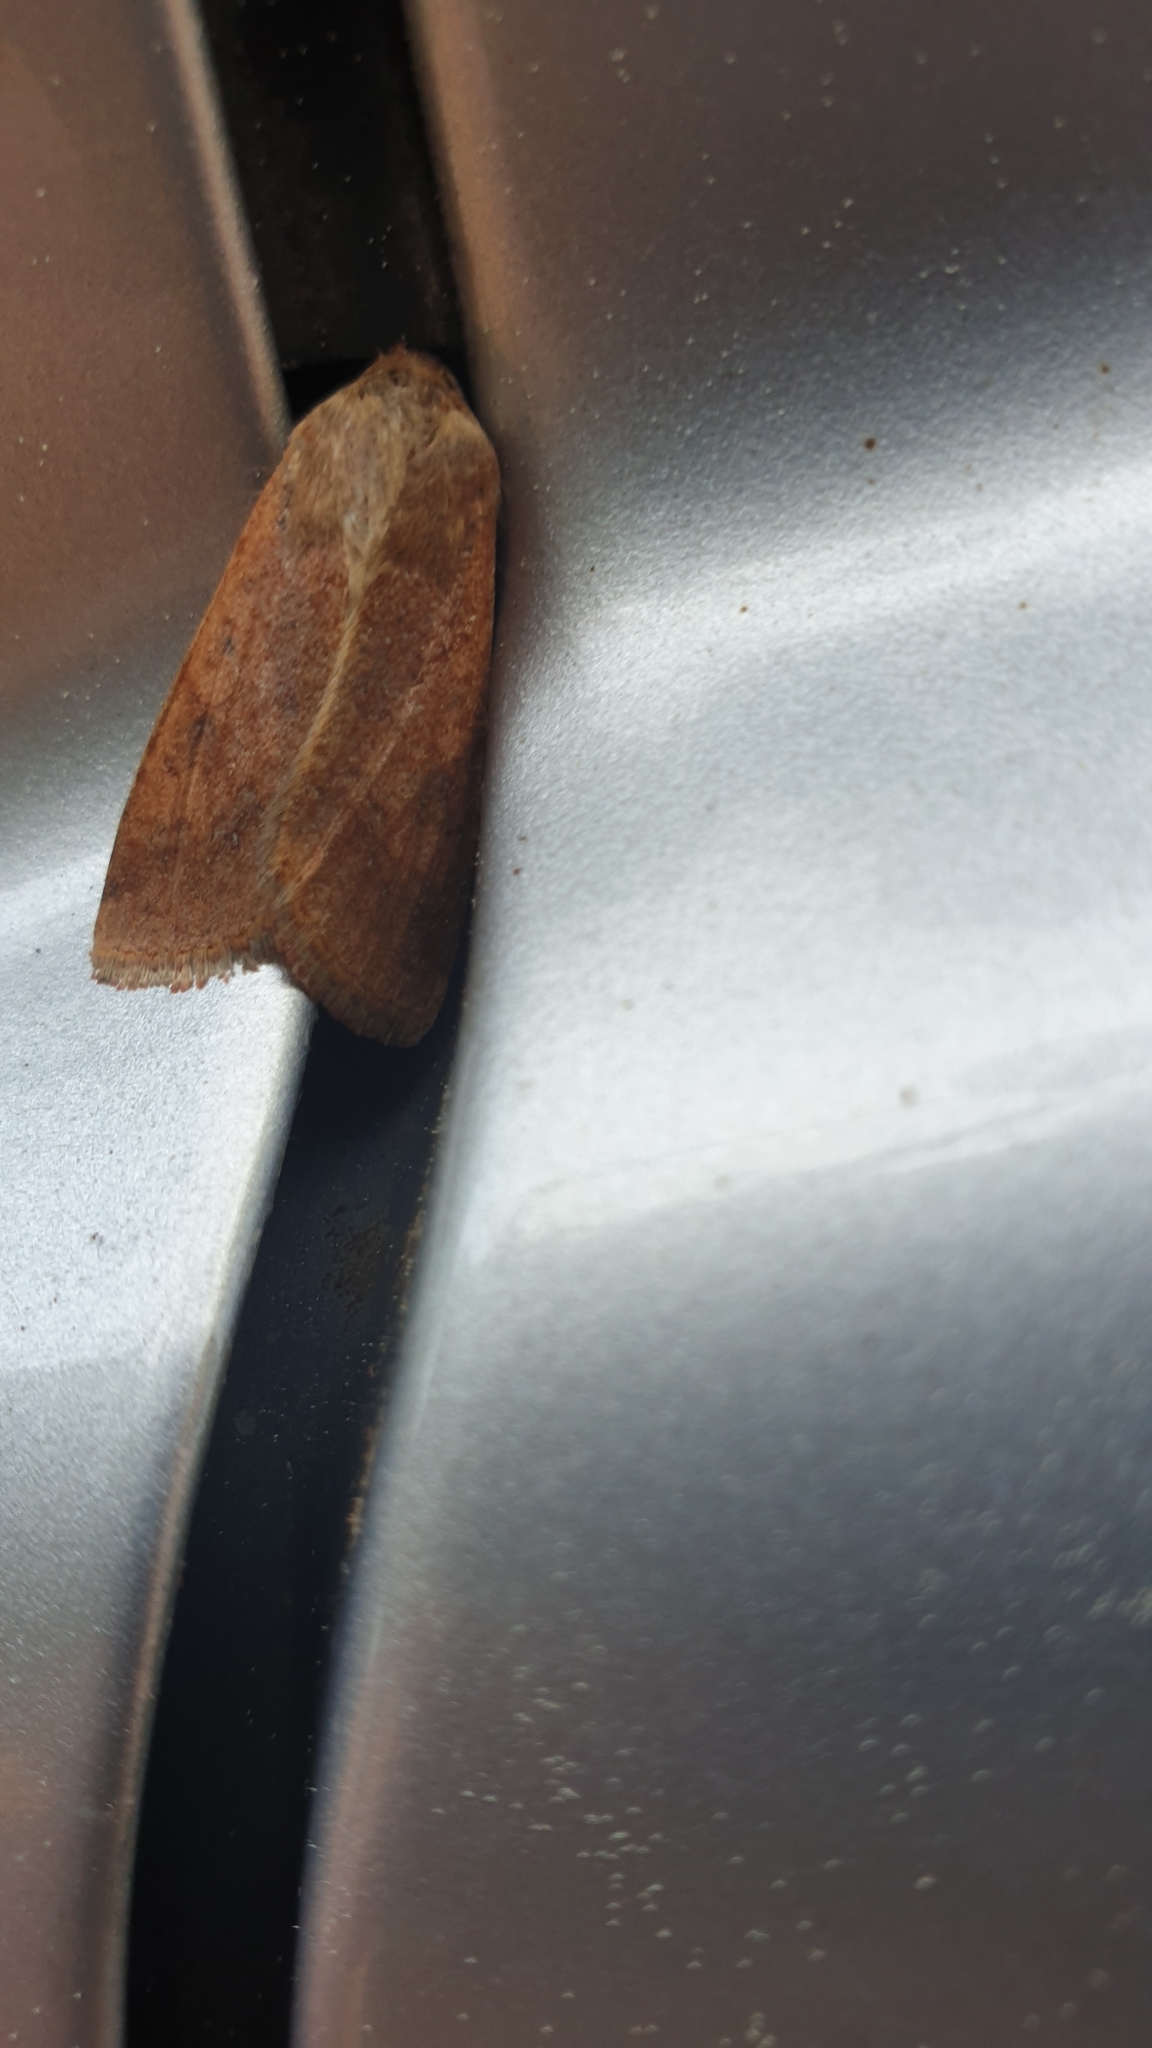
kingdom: Animalia
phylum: Arthropoda
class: Insecta
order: Lepidoptera
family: Noctuidae
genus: Helicoverpa
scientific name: Helicoverpa armigera
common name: Cotton bollworm
